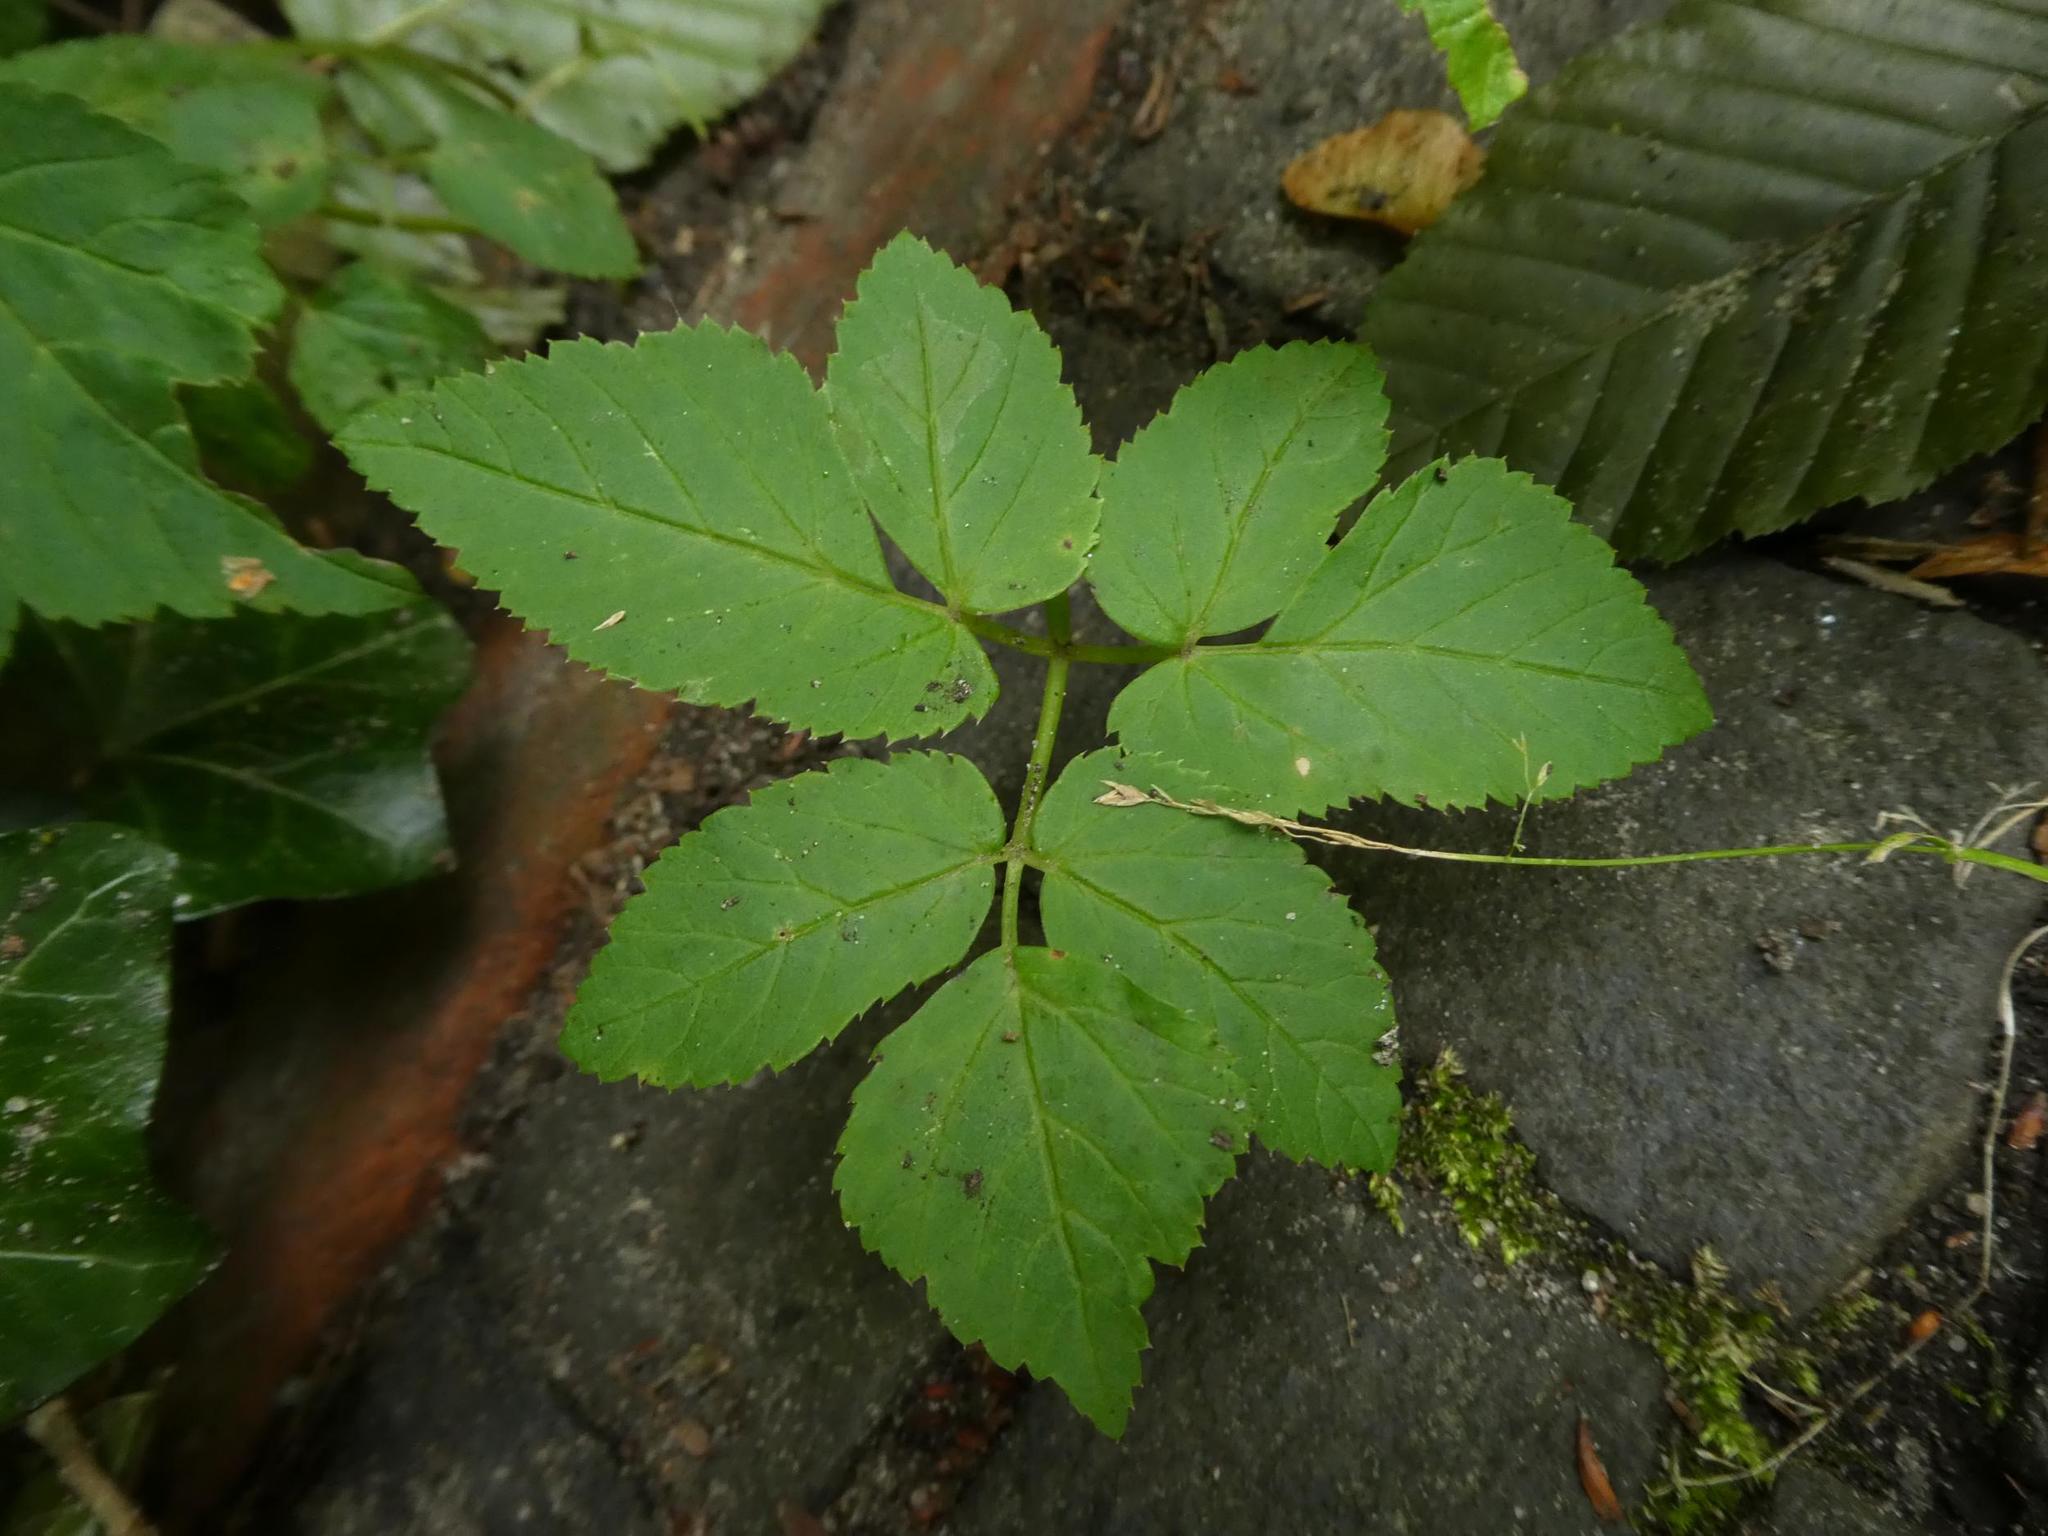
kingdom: Plantae
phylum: Tracheophyta
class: Magnoliopsida
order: Apiales
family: Apiaceae
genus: Aegopodium
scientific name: Aegopodium podagraria
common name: Ground-elder
